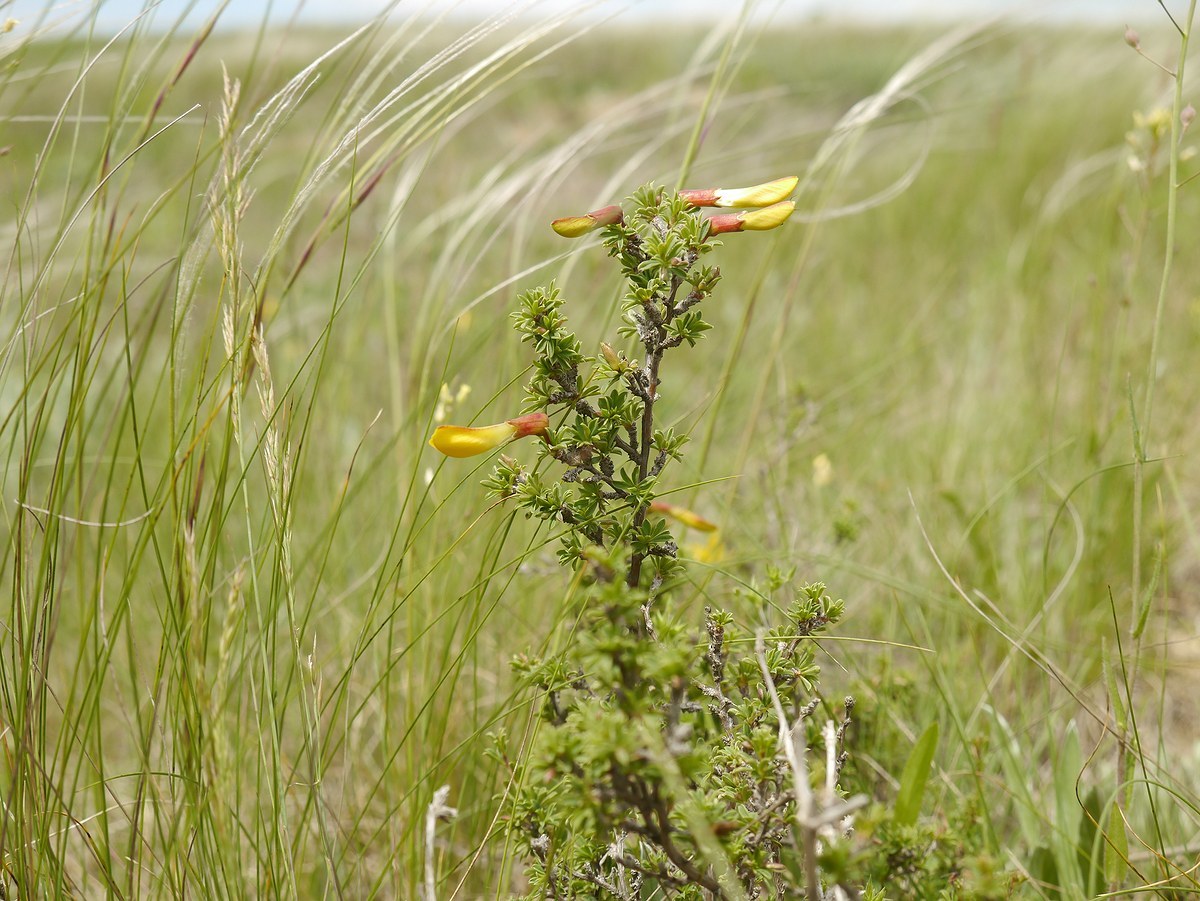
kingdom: Plantae
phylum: Tracheophyta
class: Magnoliopsida
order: Fabales
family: Fabaceae
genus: Caragana
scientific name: Caragana scythica
